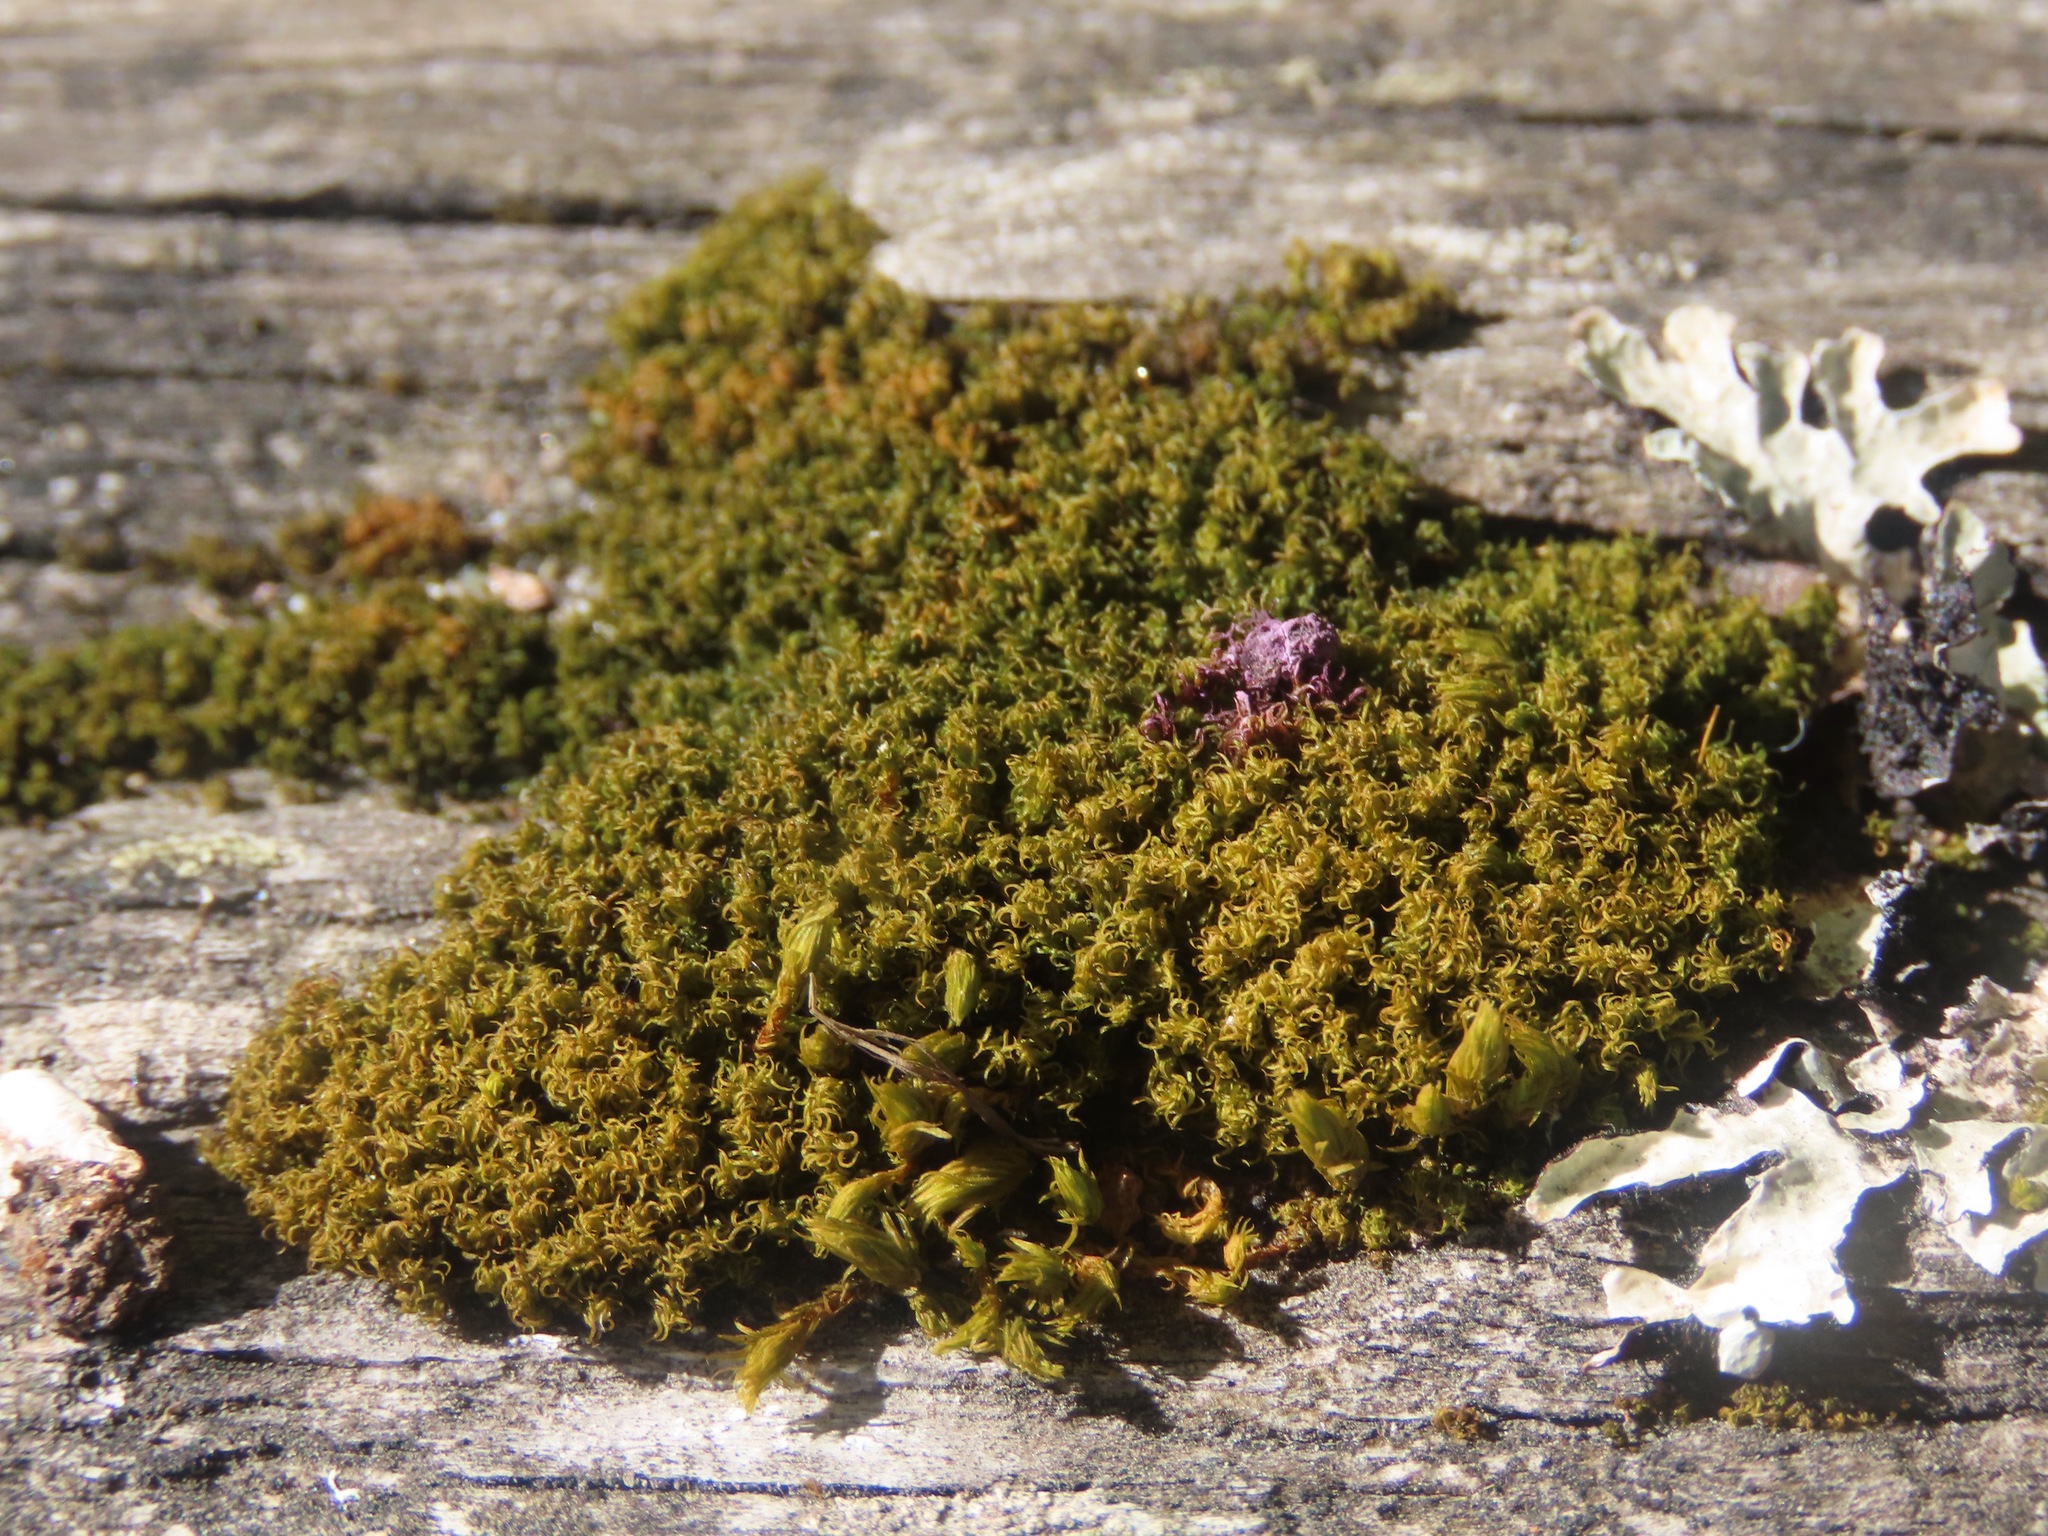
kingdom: Plantae
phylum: Bryophyta
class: Bryopsida
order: Dicranales
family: Rhabdoweisiaceae
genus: Dicranoweisia
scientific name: Dicranoweisia cirrata
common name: Common pincushion
